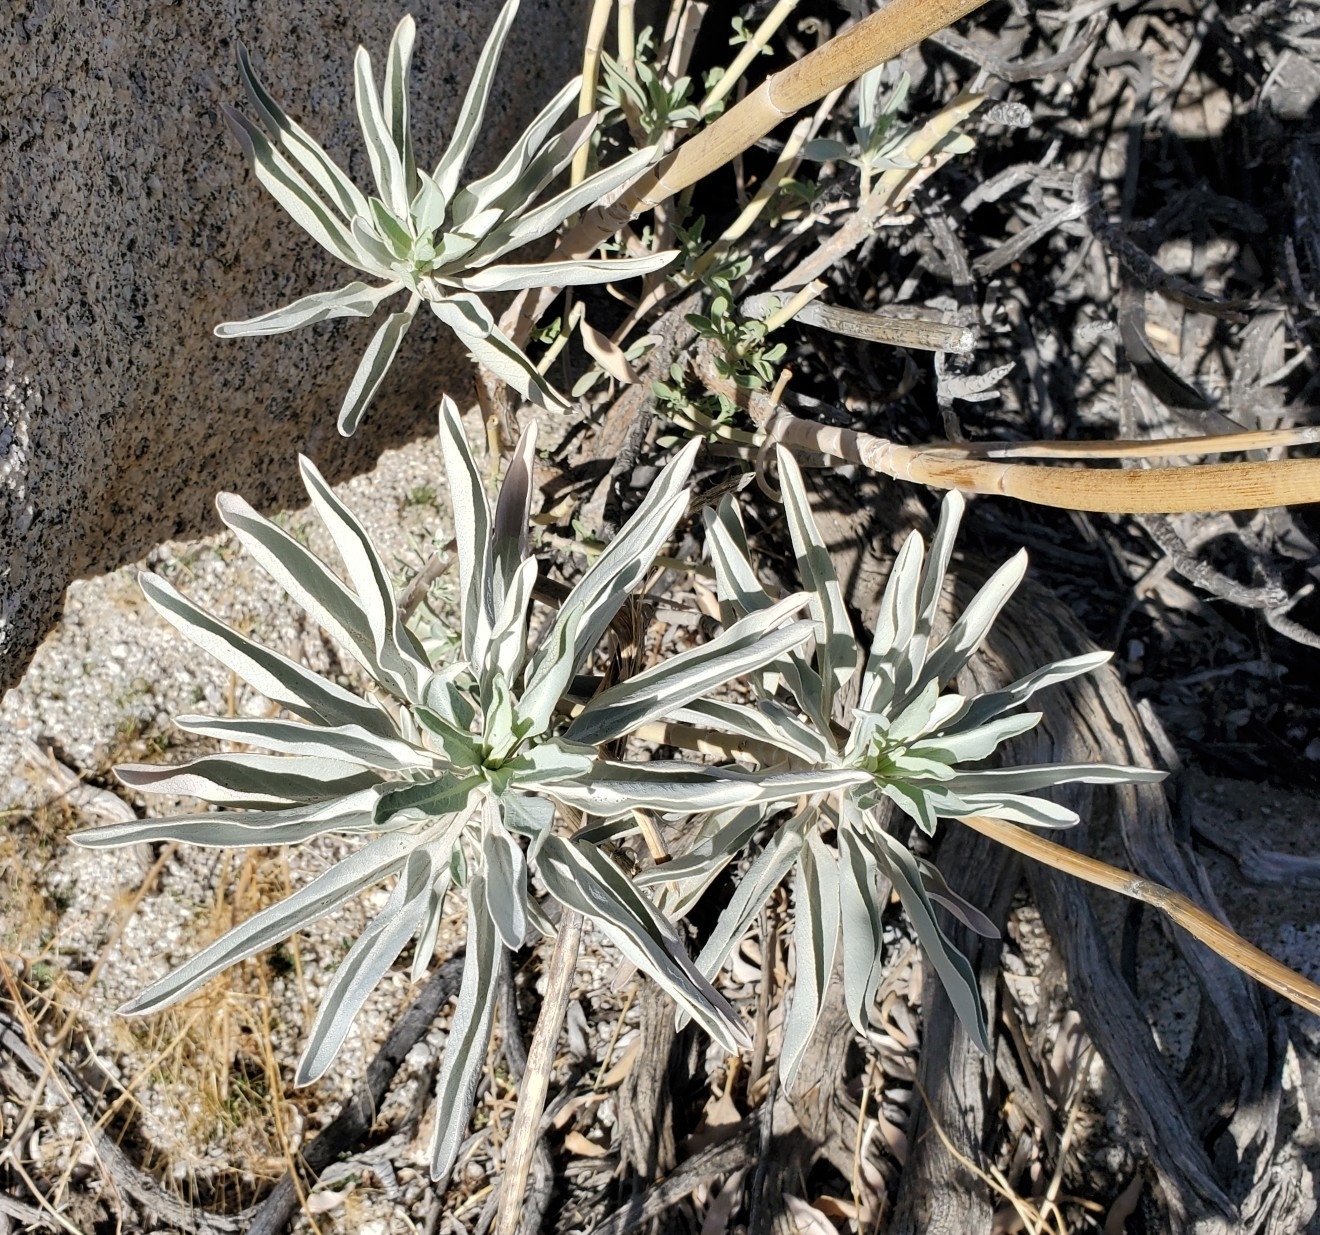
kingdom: Plantae
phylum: Tracheophyta
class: Magnoliopsida
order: Lamiales
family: Lamiaceae
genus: Salvia
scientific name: Salvia apiana
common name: White sage
